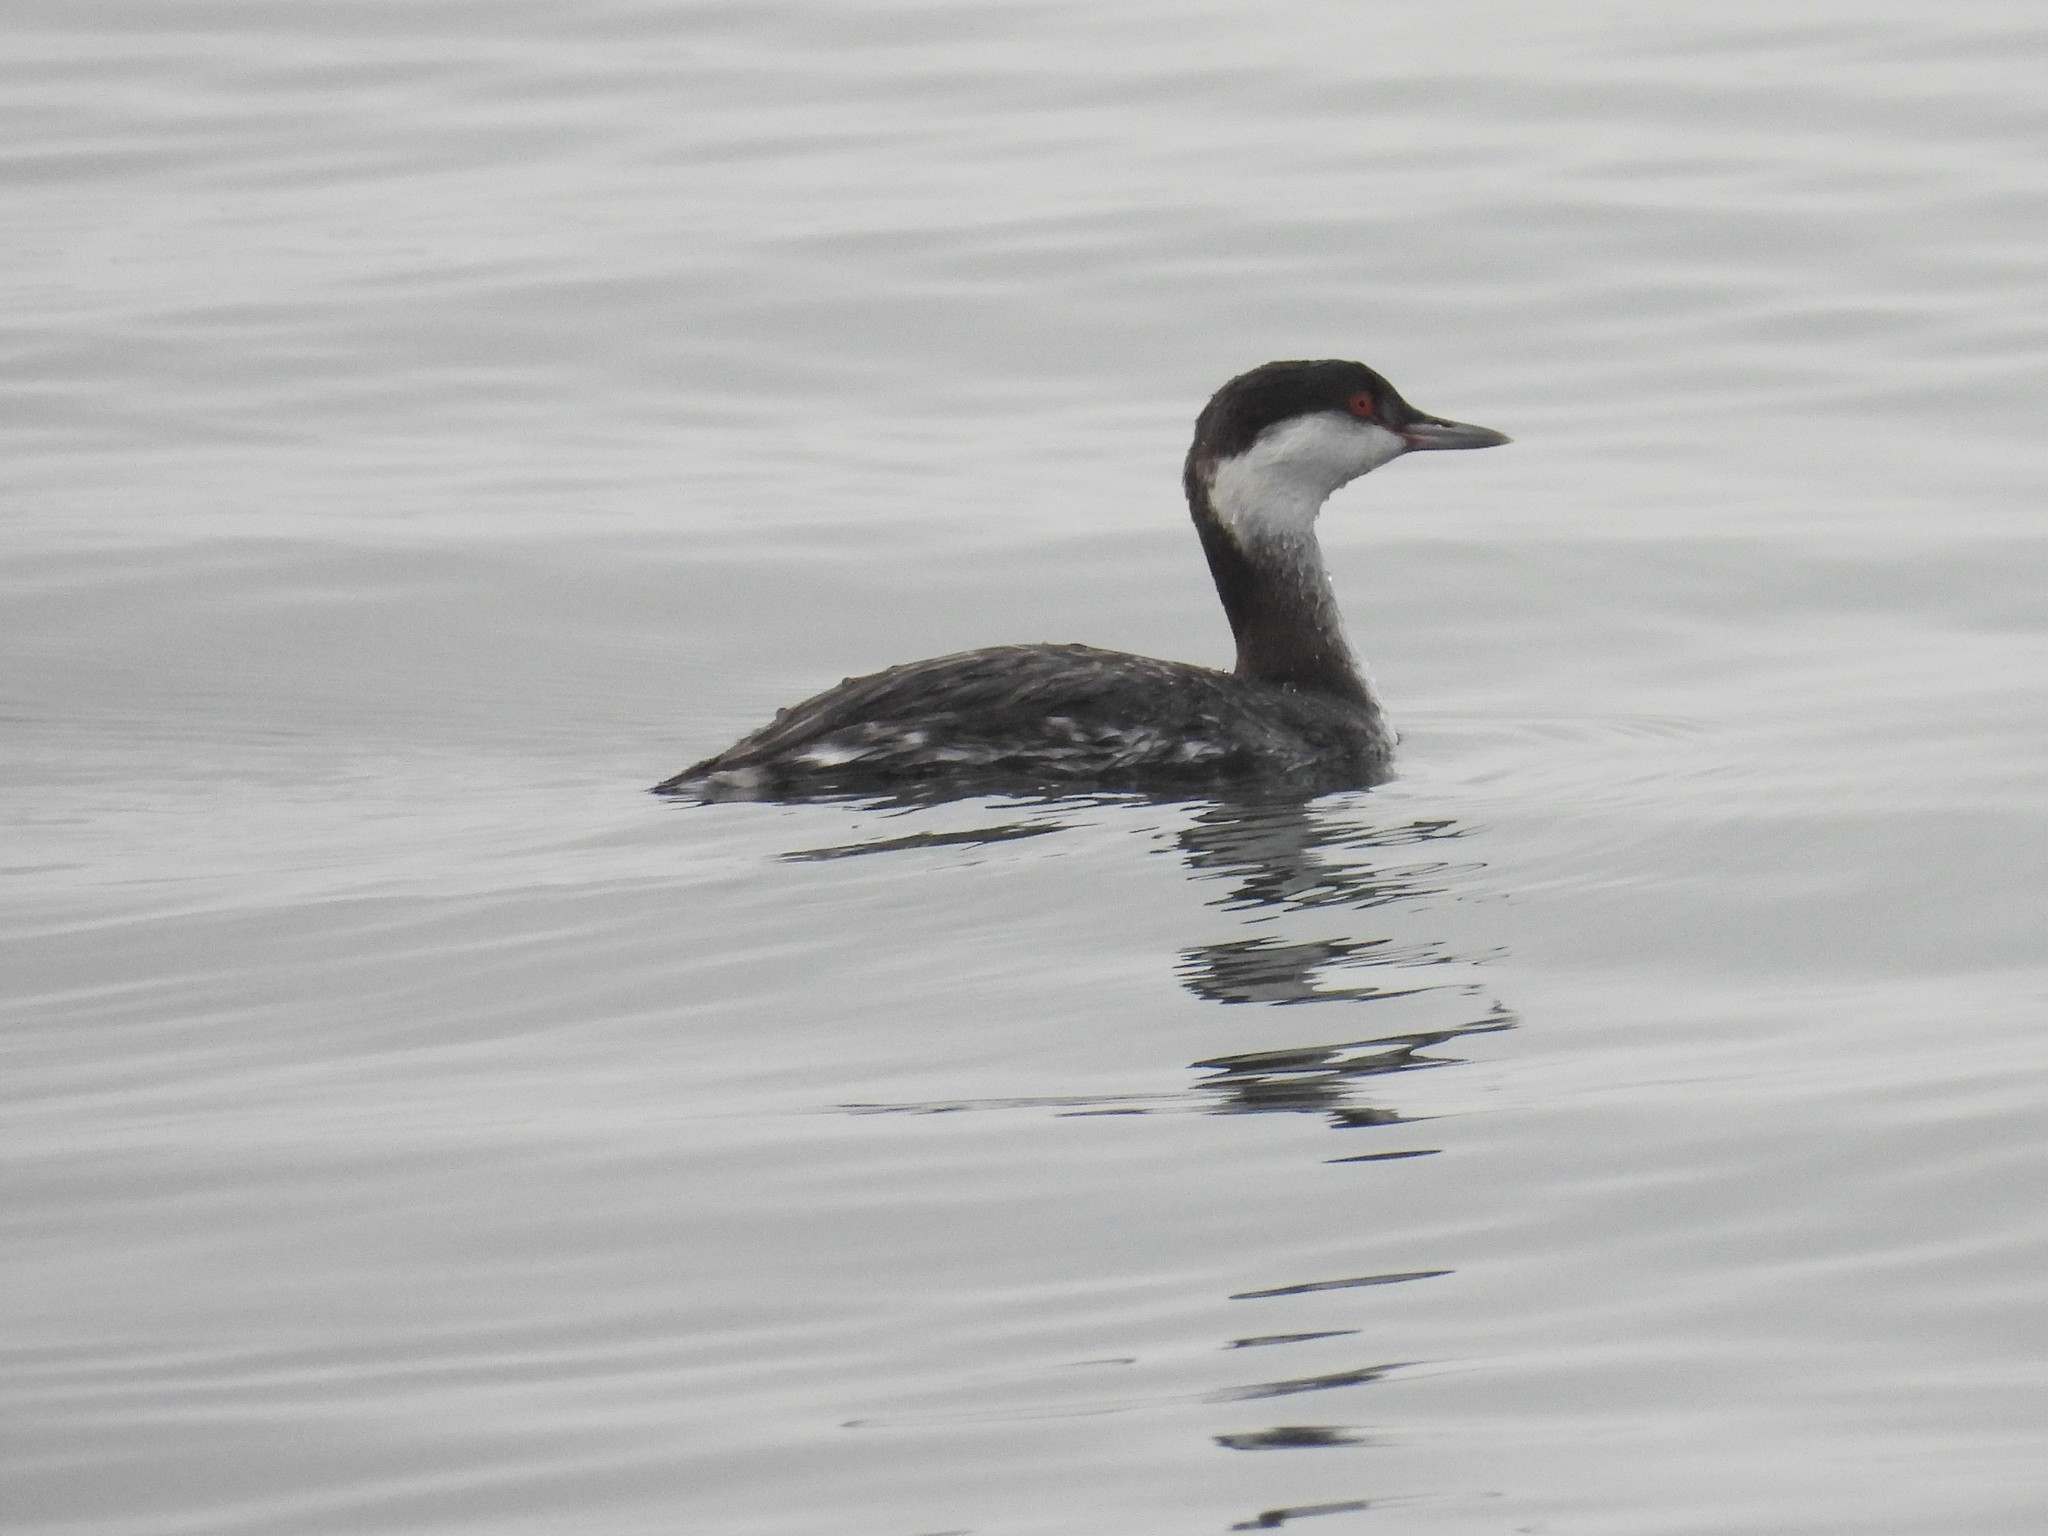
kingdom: Animalia
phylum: Chordata
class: Aves
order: Podicipediformes
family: Podicipedidae
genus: Podiceps
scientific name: Podiceps auritus
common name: Horned grebe
